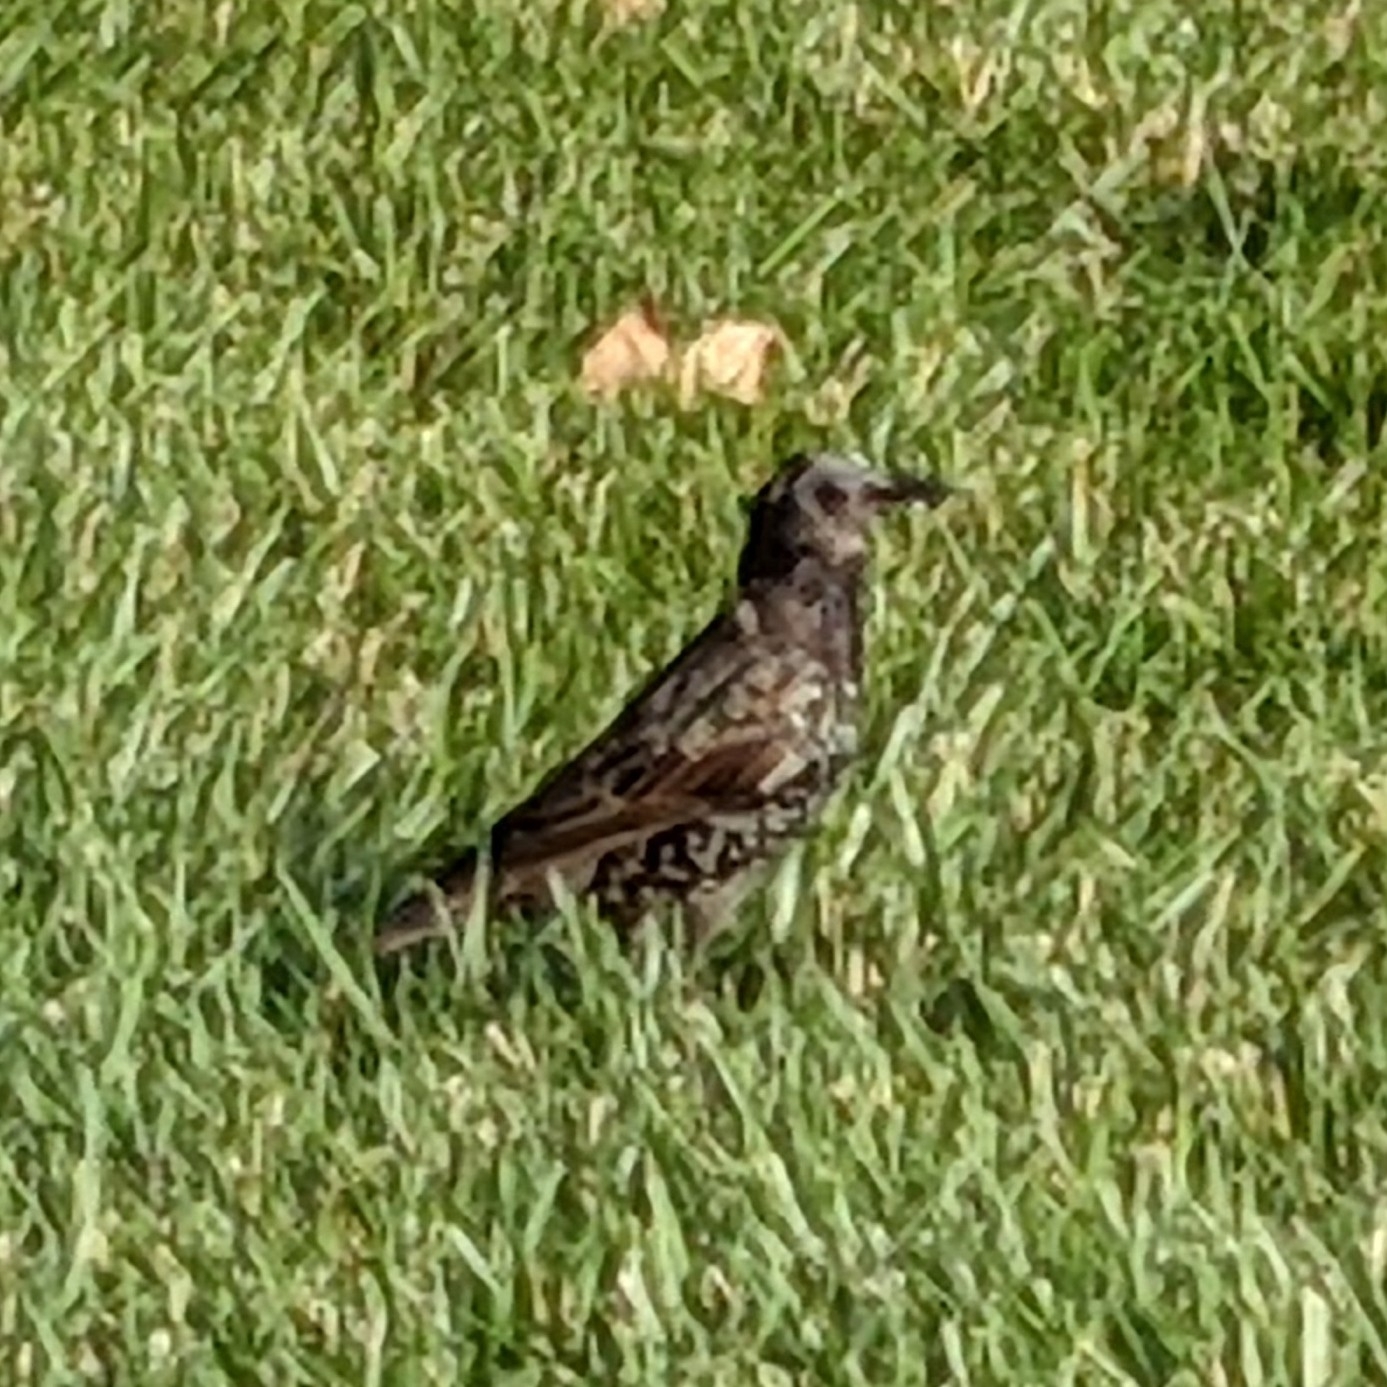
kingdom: Animalia
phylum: Chordata
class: Aves
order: Passeriformes
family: Sturnidae
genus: Sturnus
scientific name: Sturnus vulgaris
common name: Common starling
